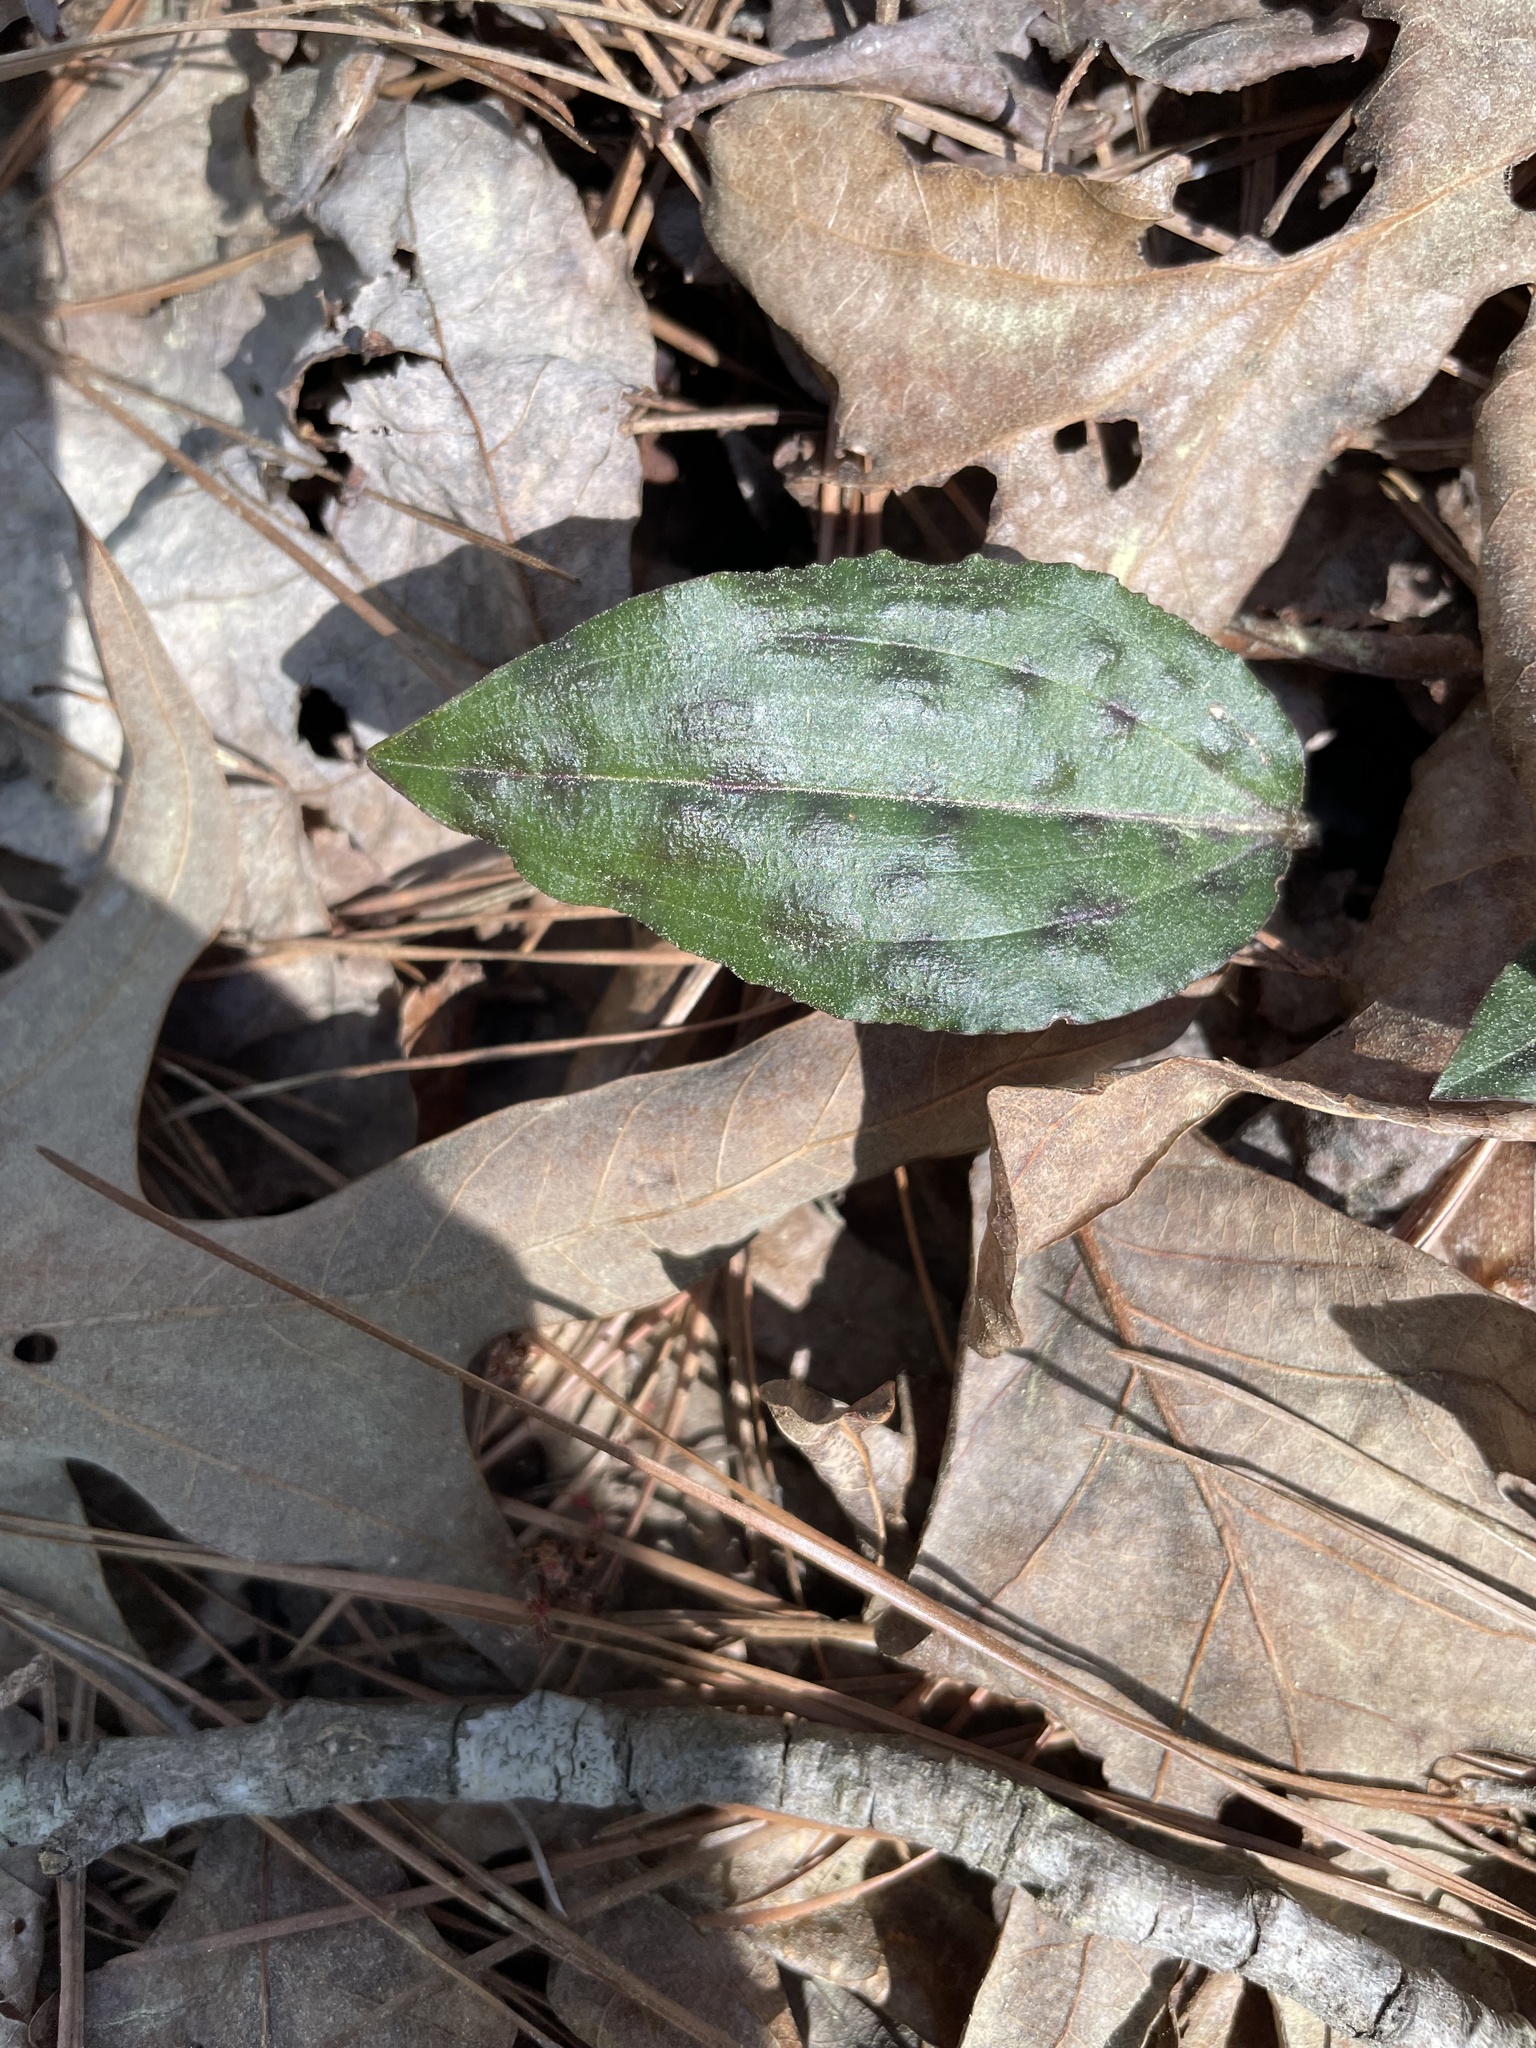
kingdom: Plantae
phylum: Tracheophyta
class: Liliopsida
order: Asparagales
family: Orchidaceae
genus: Tipularia
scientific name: Tipularia discolor
